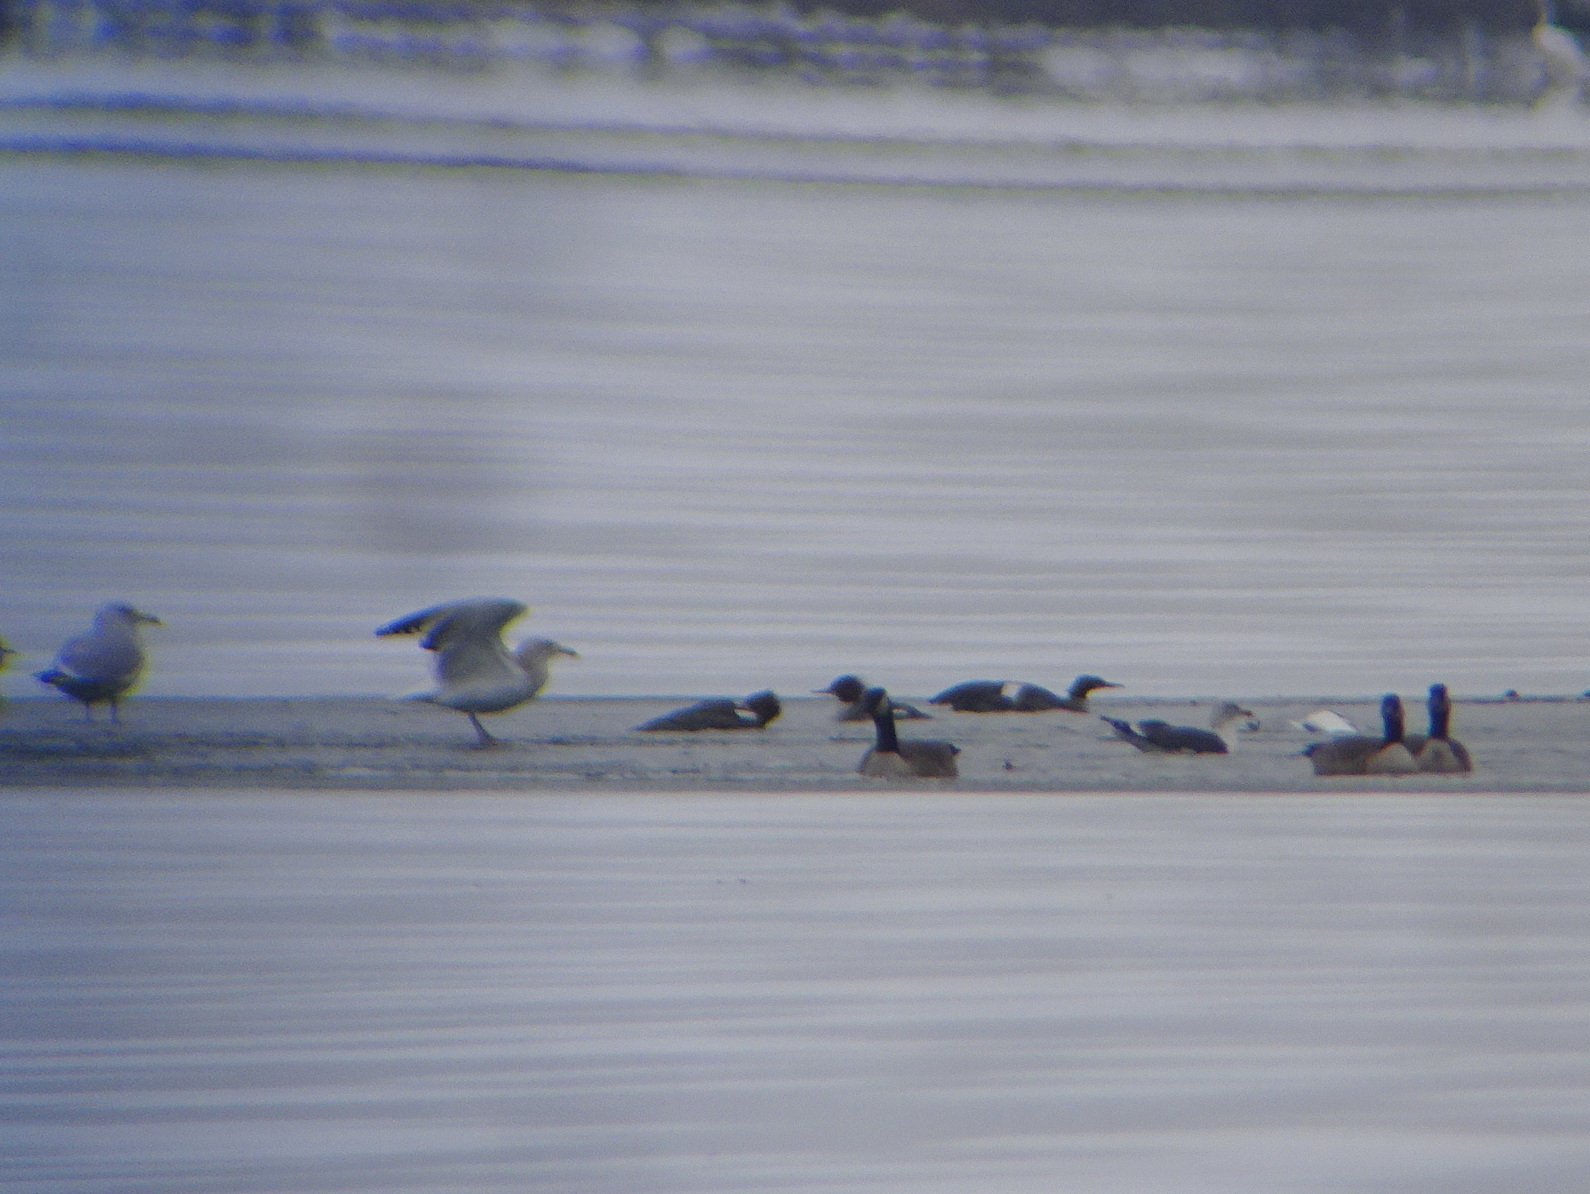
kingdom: Animalia
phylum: Chordata
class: Aves
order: Charadriiformes
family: Laridae
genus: Larus
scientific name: Larus fuscus
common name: Lesser black-backed gull
